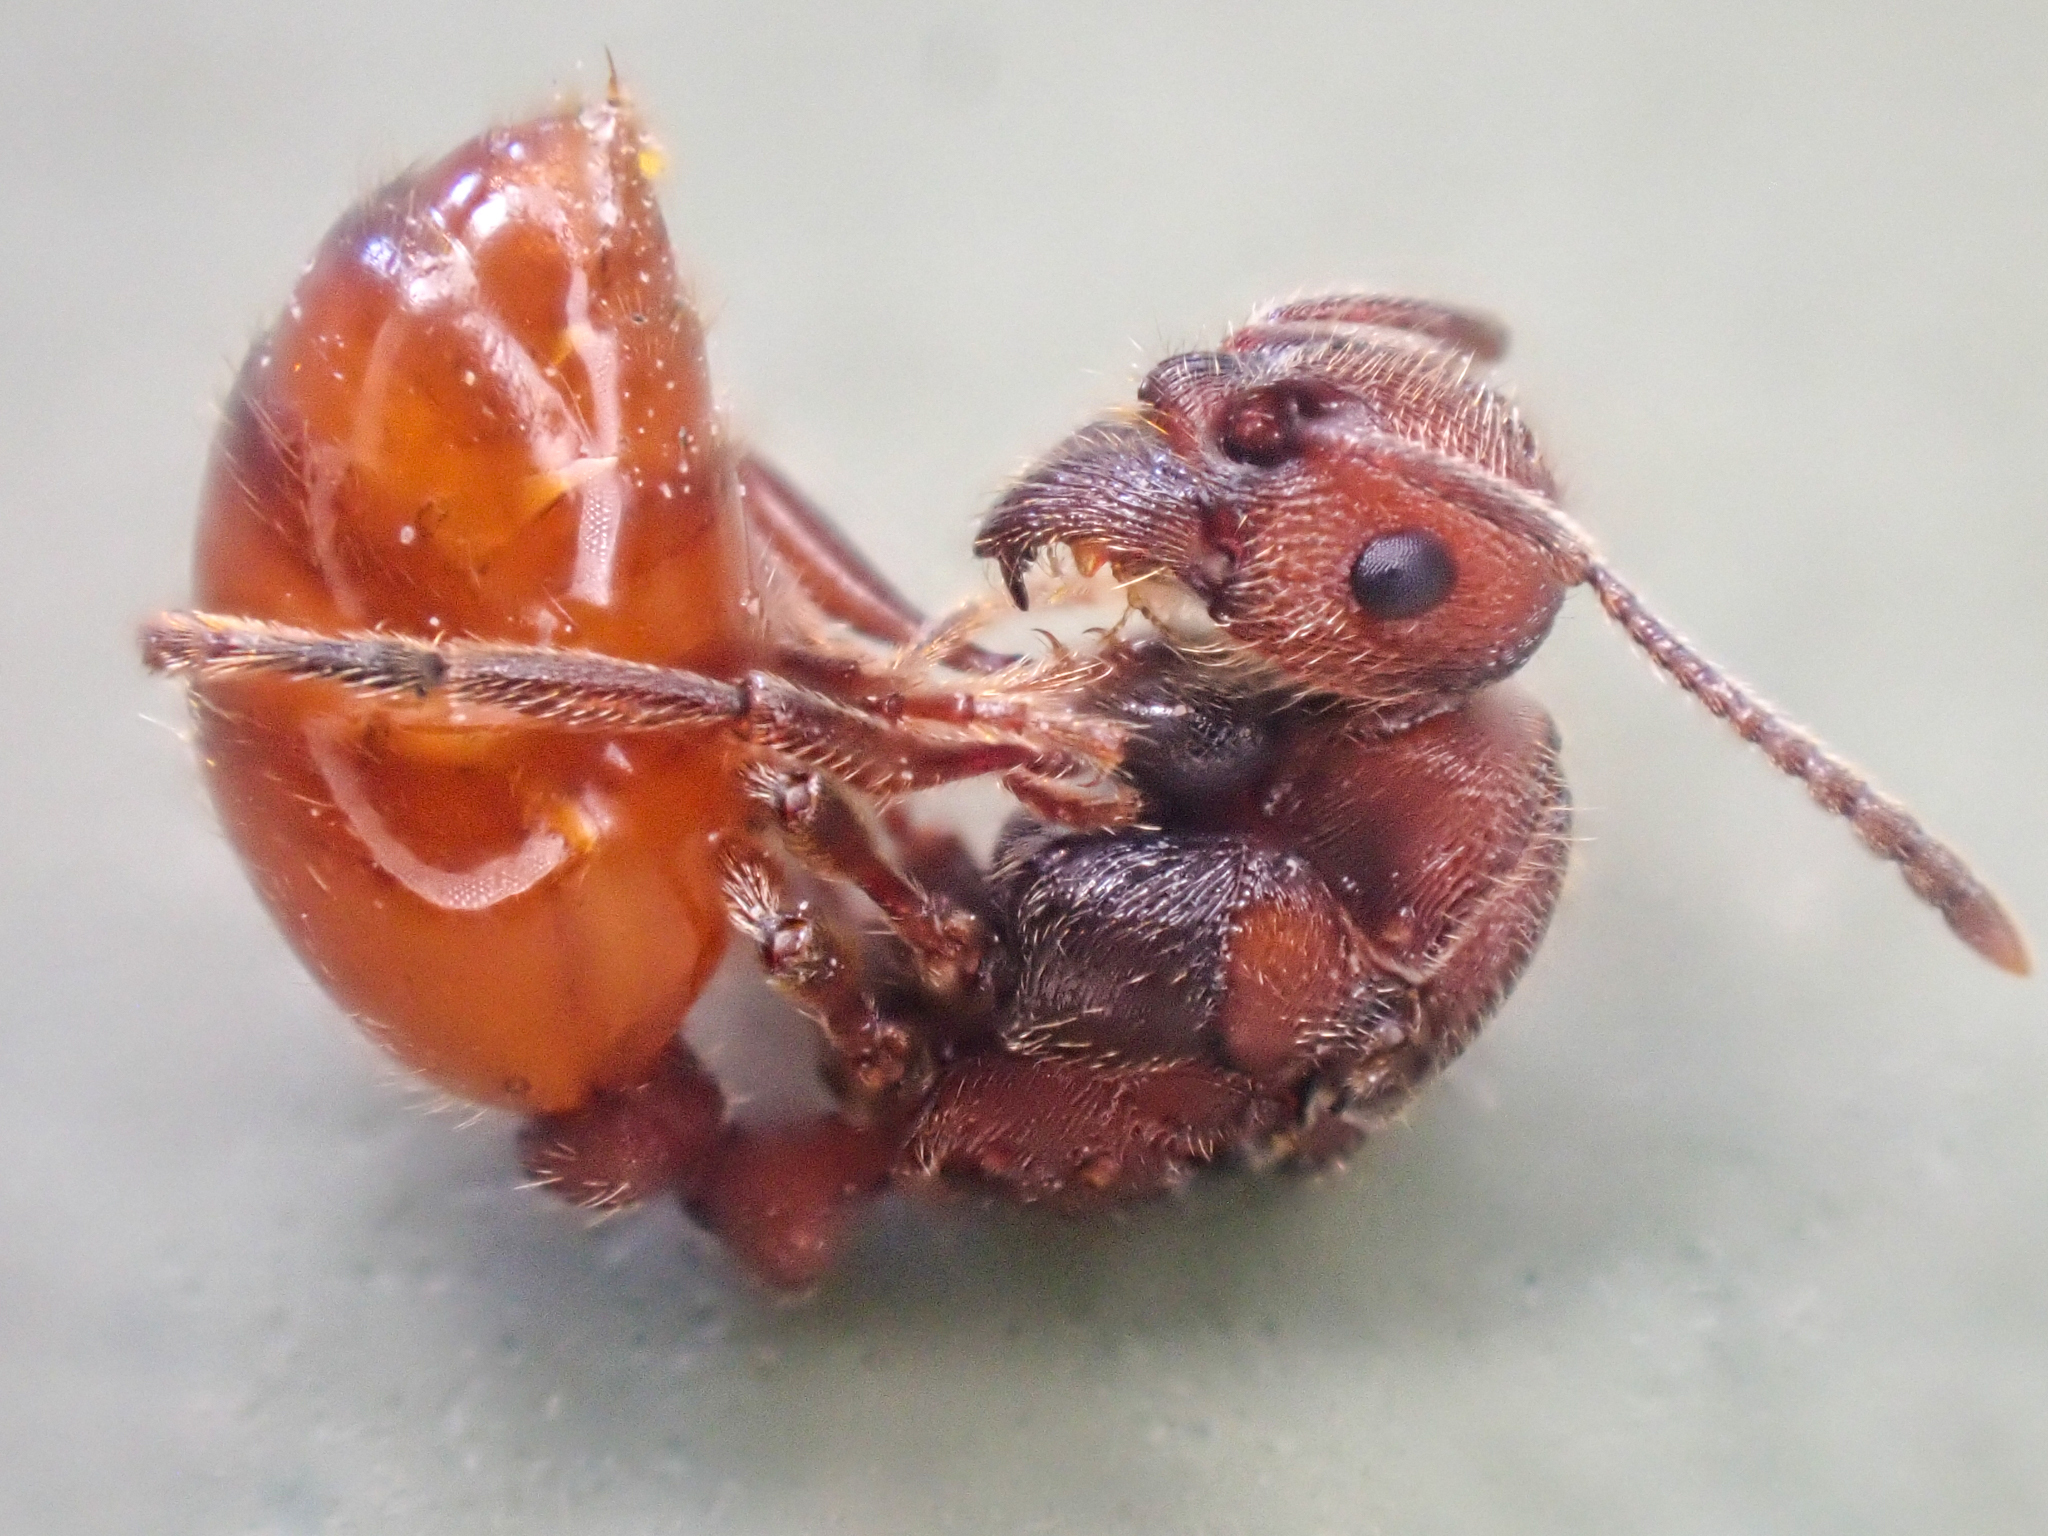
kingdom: Animalia
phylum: Arthropoda
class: Insecta
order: Hymenoptera
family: Formicidae
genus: Manica
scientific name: Manica invidia
